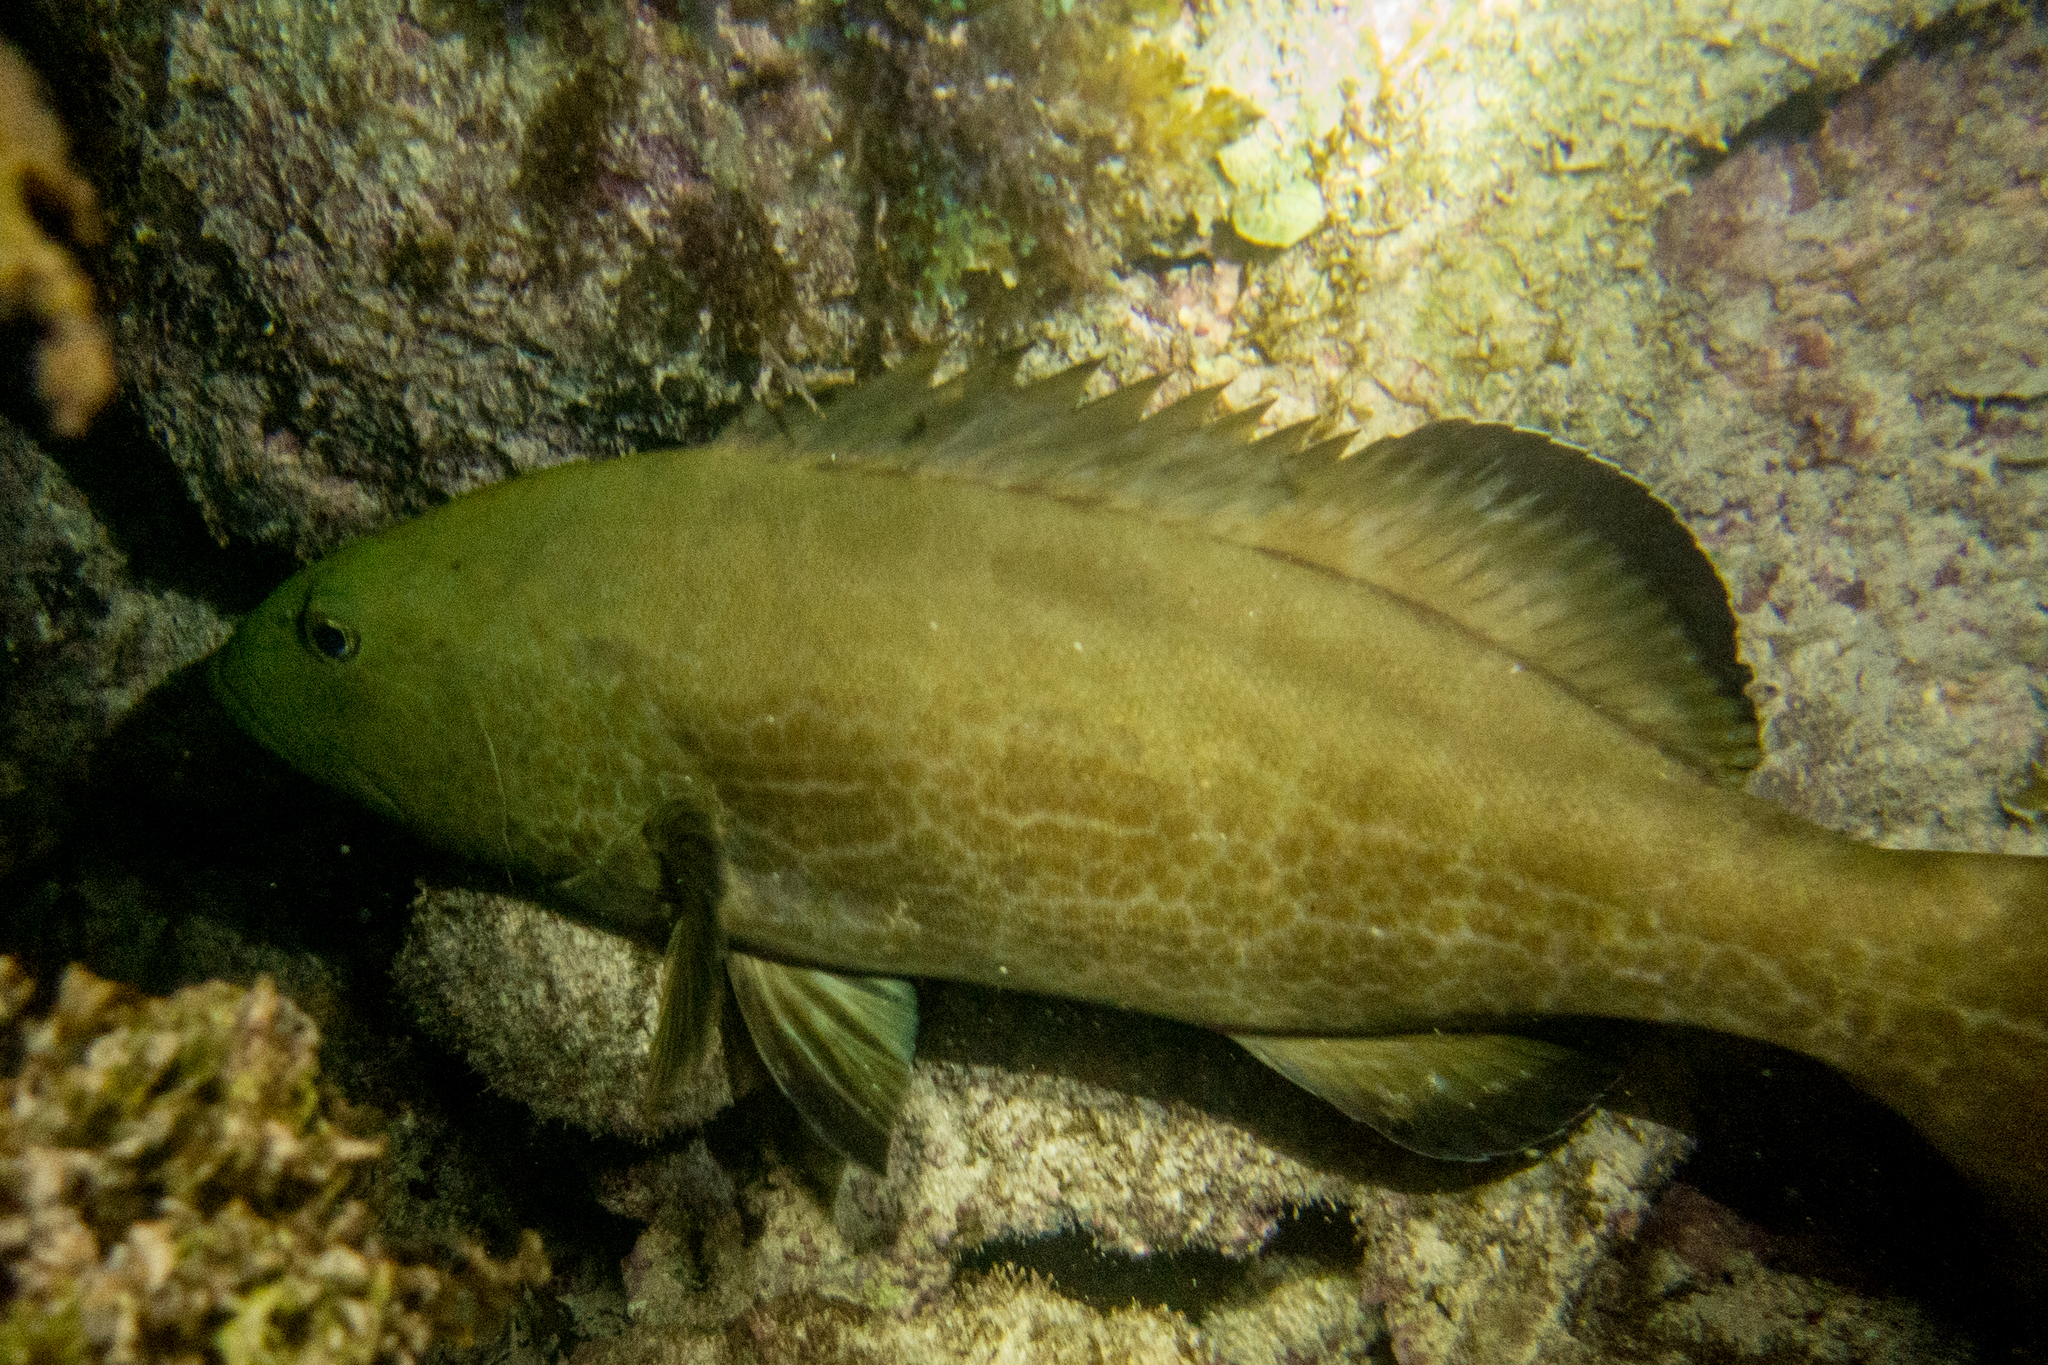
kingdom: Animalia
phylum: Chordata
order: Perciformes
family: Serranidae
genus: Mycteroperca
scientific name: Mycteroperca bonaci
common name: Black grouper
